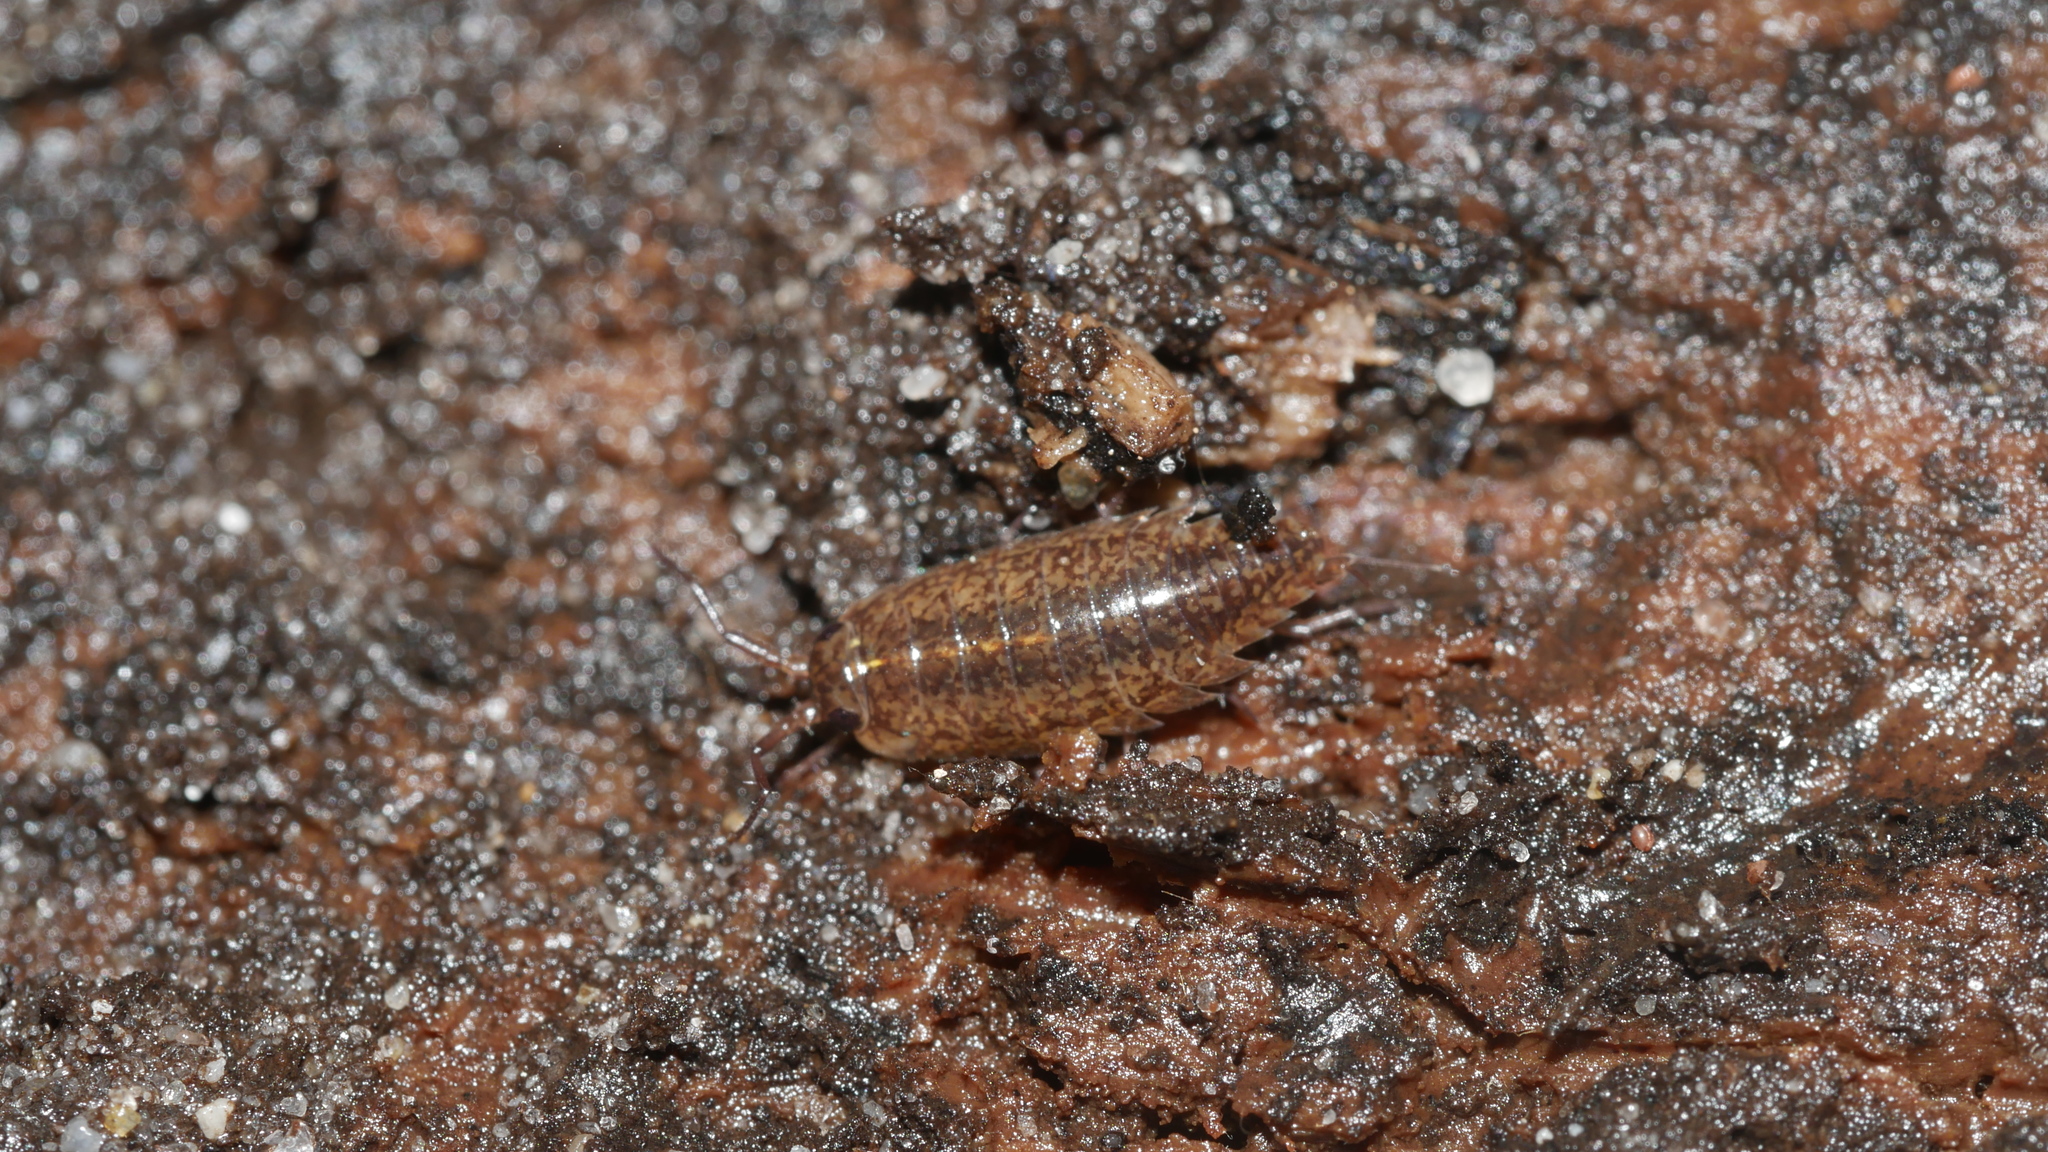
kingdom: Animalia
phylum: Arthropoda
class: Malacostraca
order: Isopoda
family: Ligiidae
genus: Ligidium
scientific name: Ligidium elrodii
